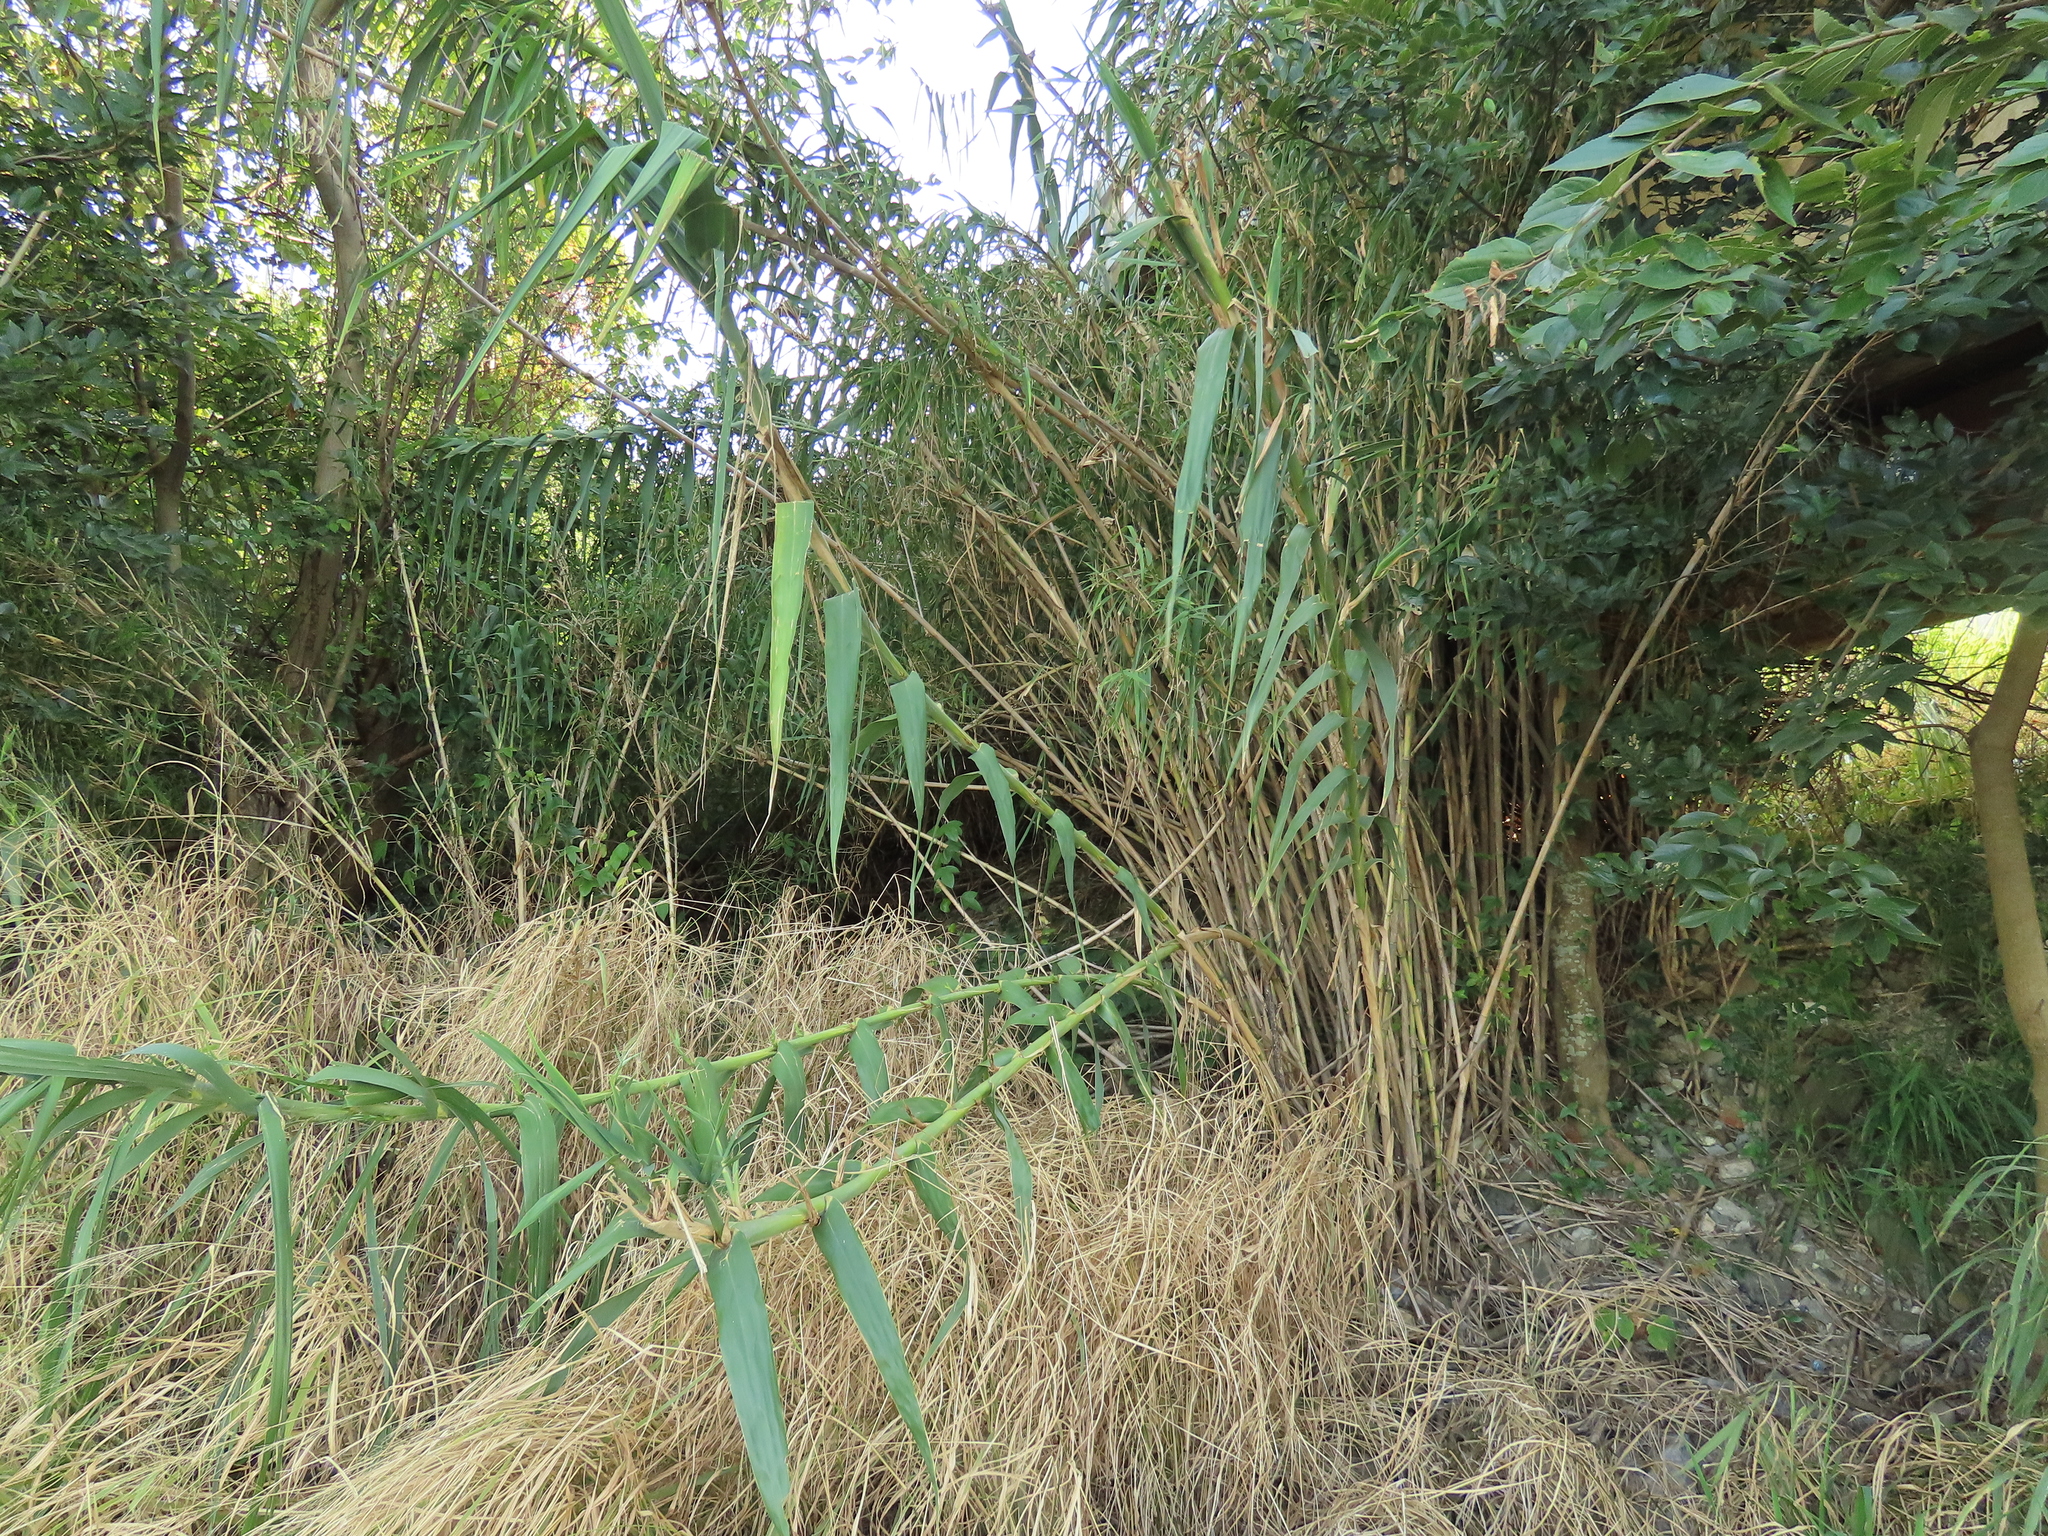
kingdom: Plantae
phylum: Tracheophyta
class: Liliopsida
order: Poales
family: Poaceae
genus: Arundo
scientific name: Arundo donax
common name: Giant reed
